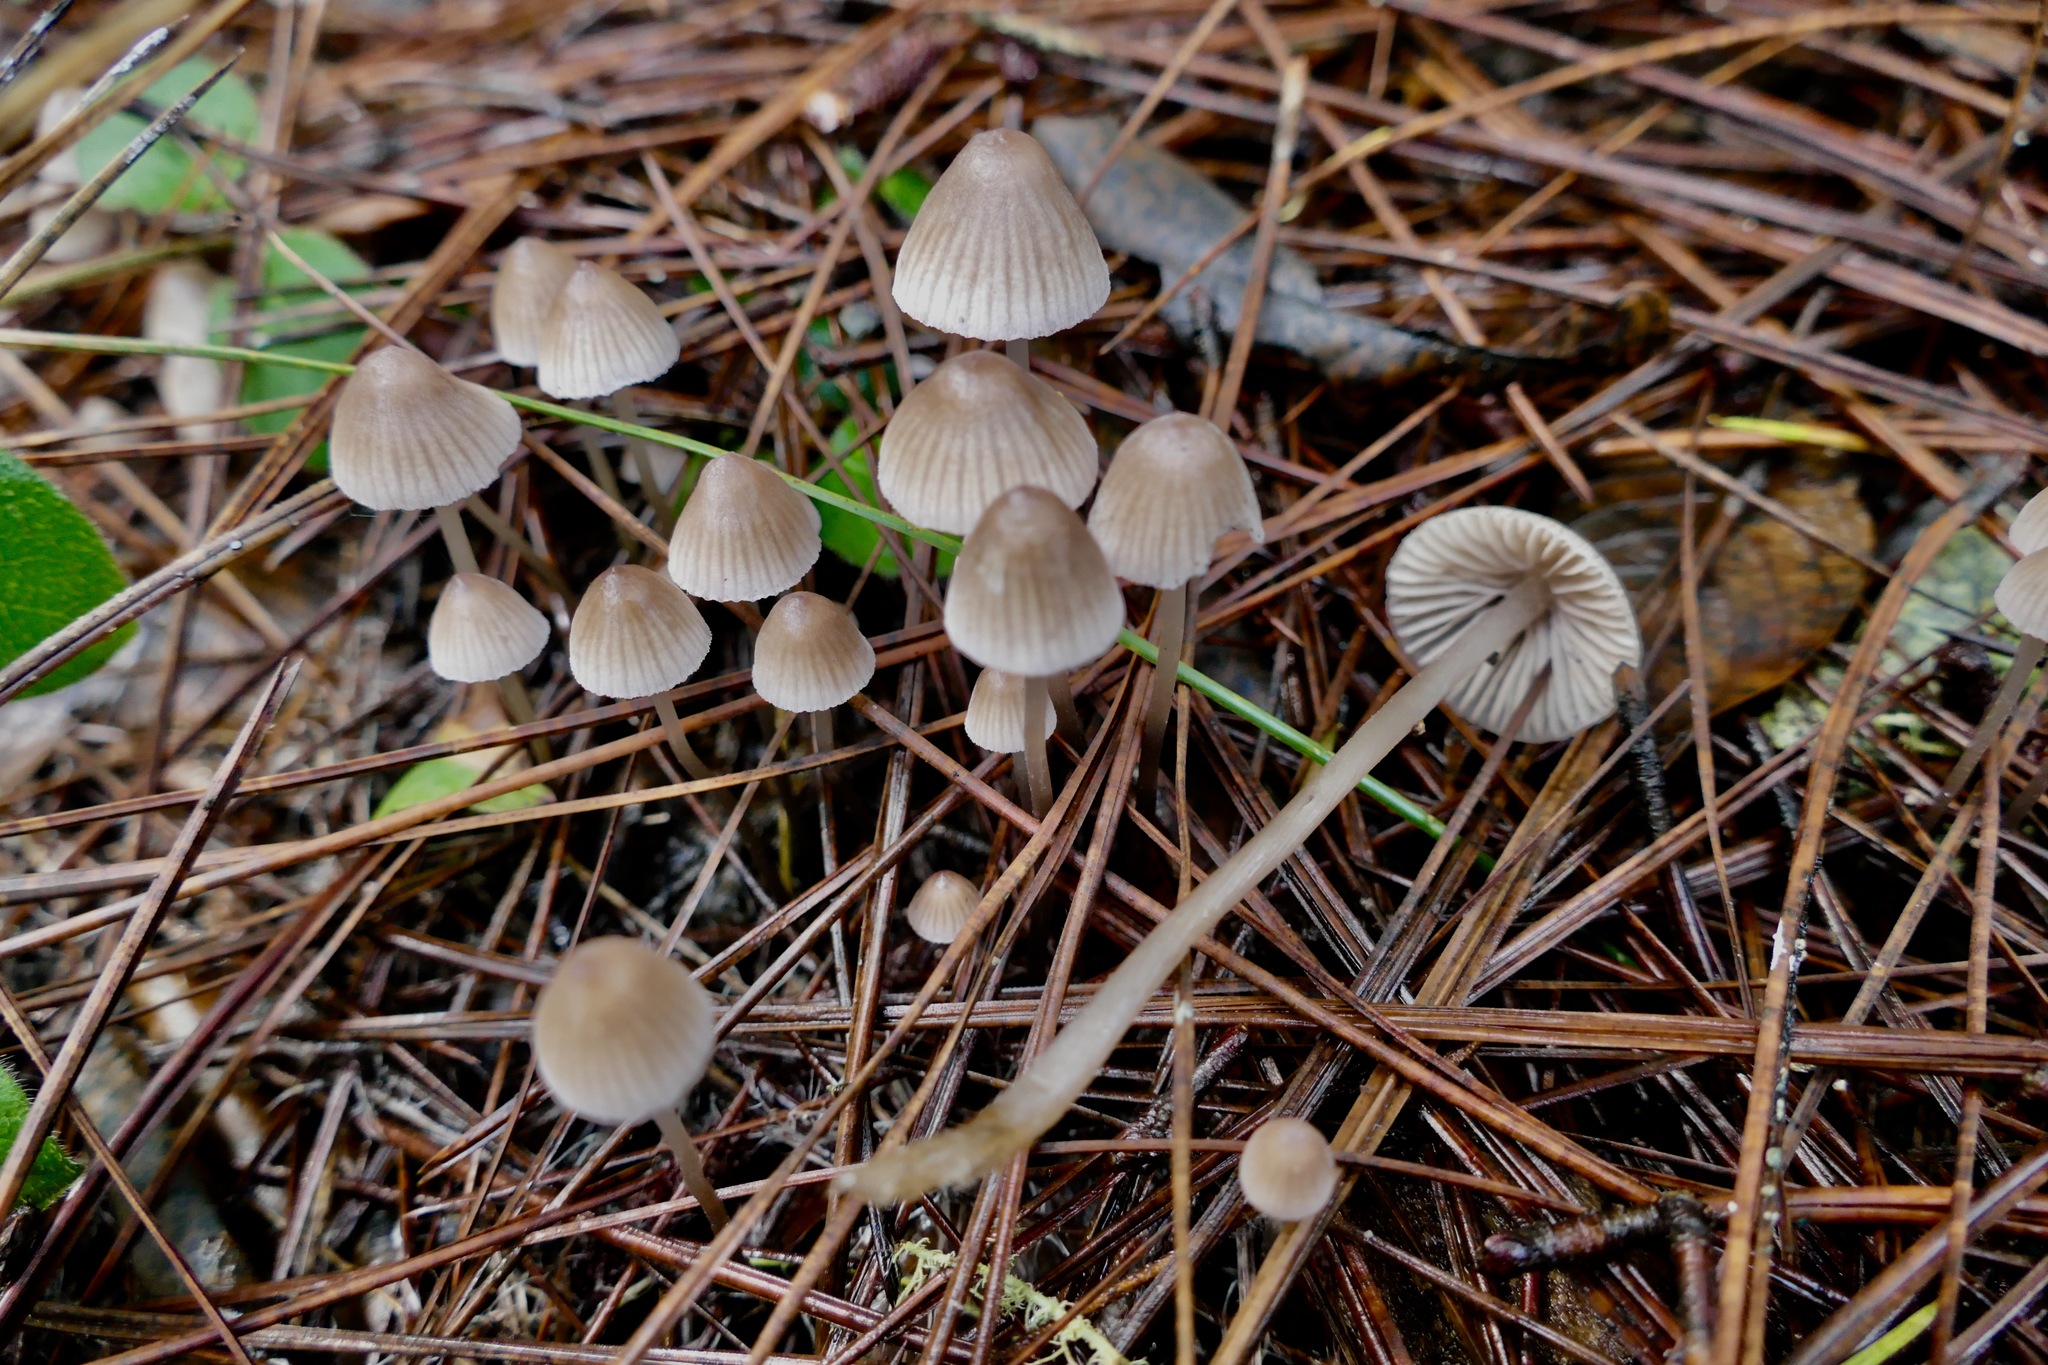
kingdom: Fungi
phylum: Basidiomycota
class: Agaricomycetes
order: Agaricales
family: Mycenaceae
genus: Mycena
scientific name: Mycena capillaripes
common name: Pinkedge bonnet
